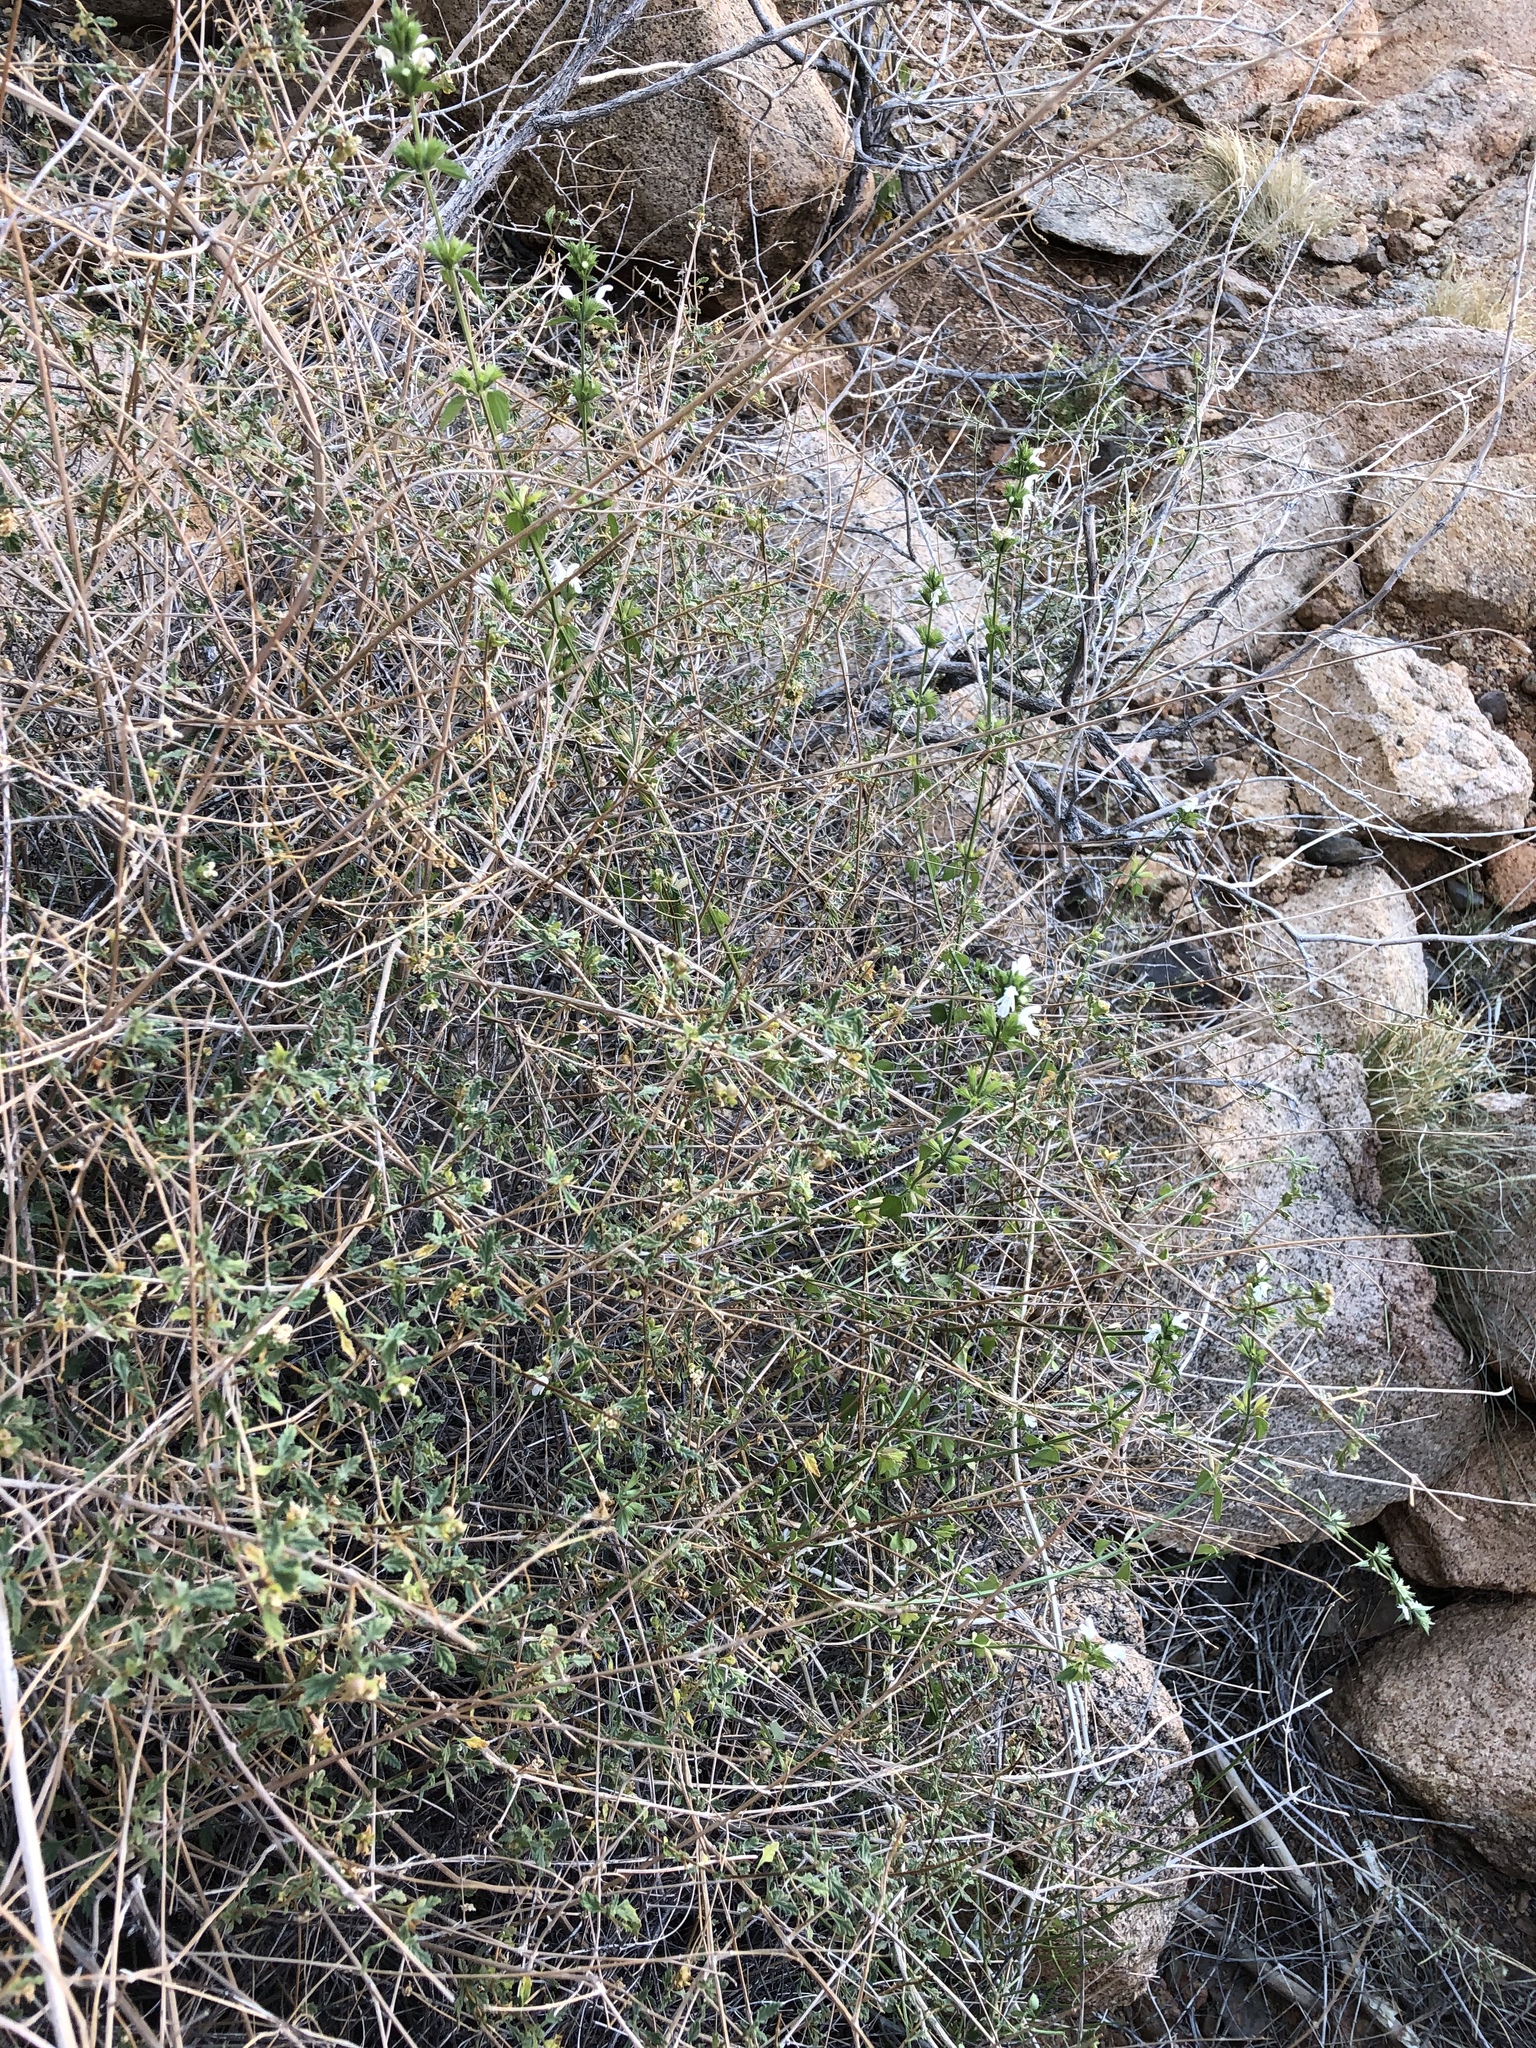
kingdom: Plantae
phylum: Tracheophyta
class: Magnoliopsida
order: Lamiales
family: Lamiaceae
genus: Leucas
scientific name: Leucas glabrata
